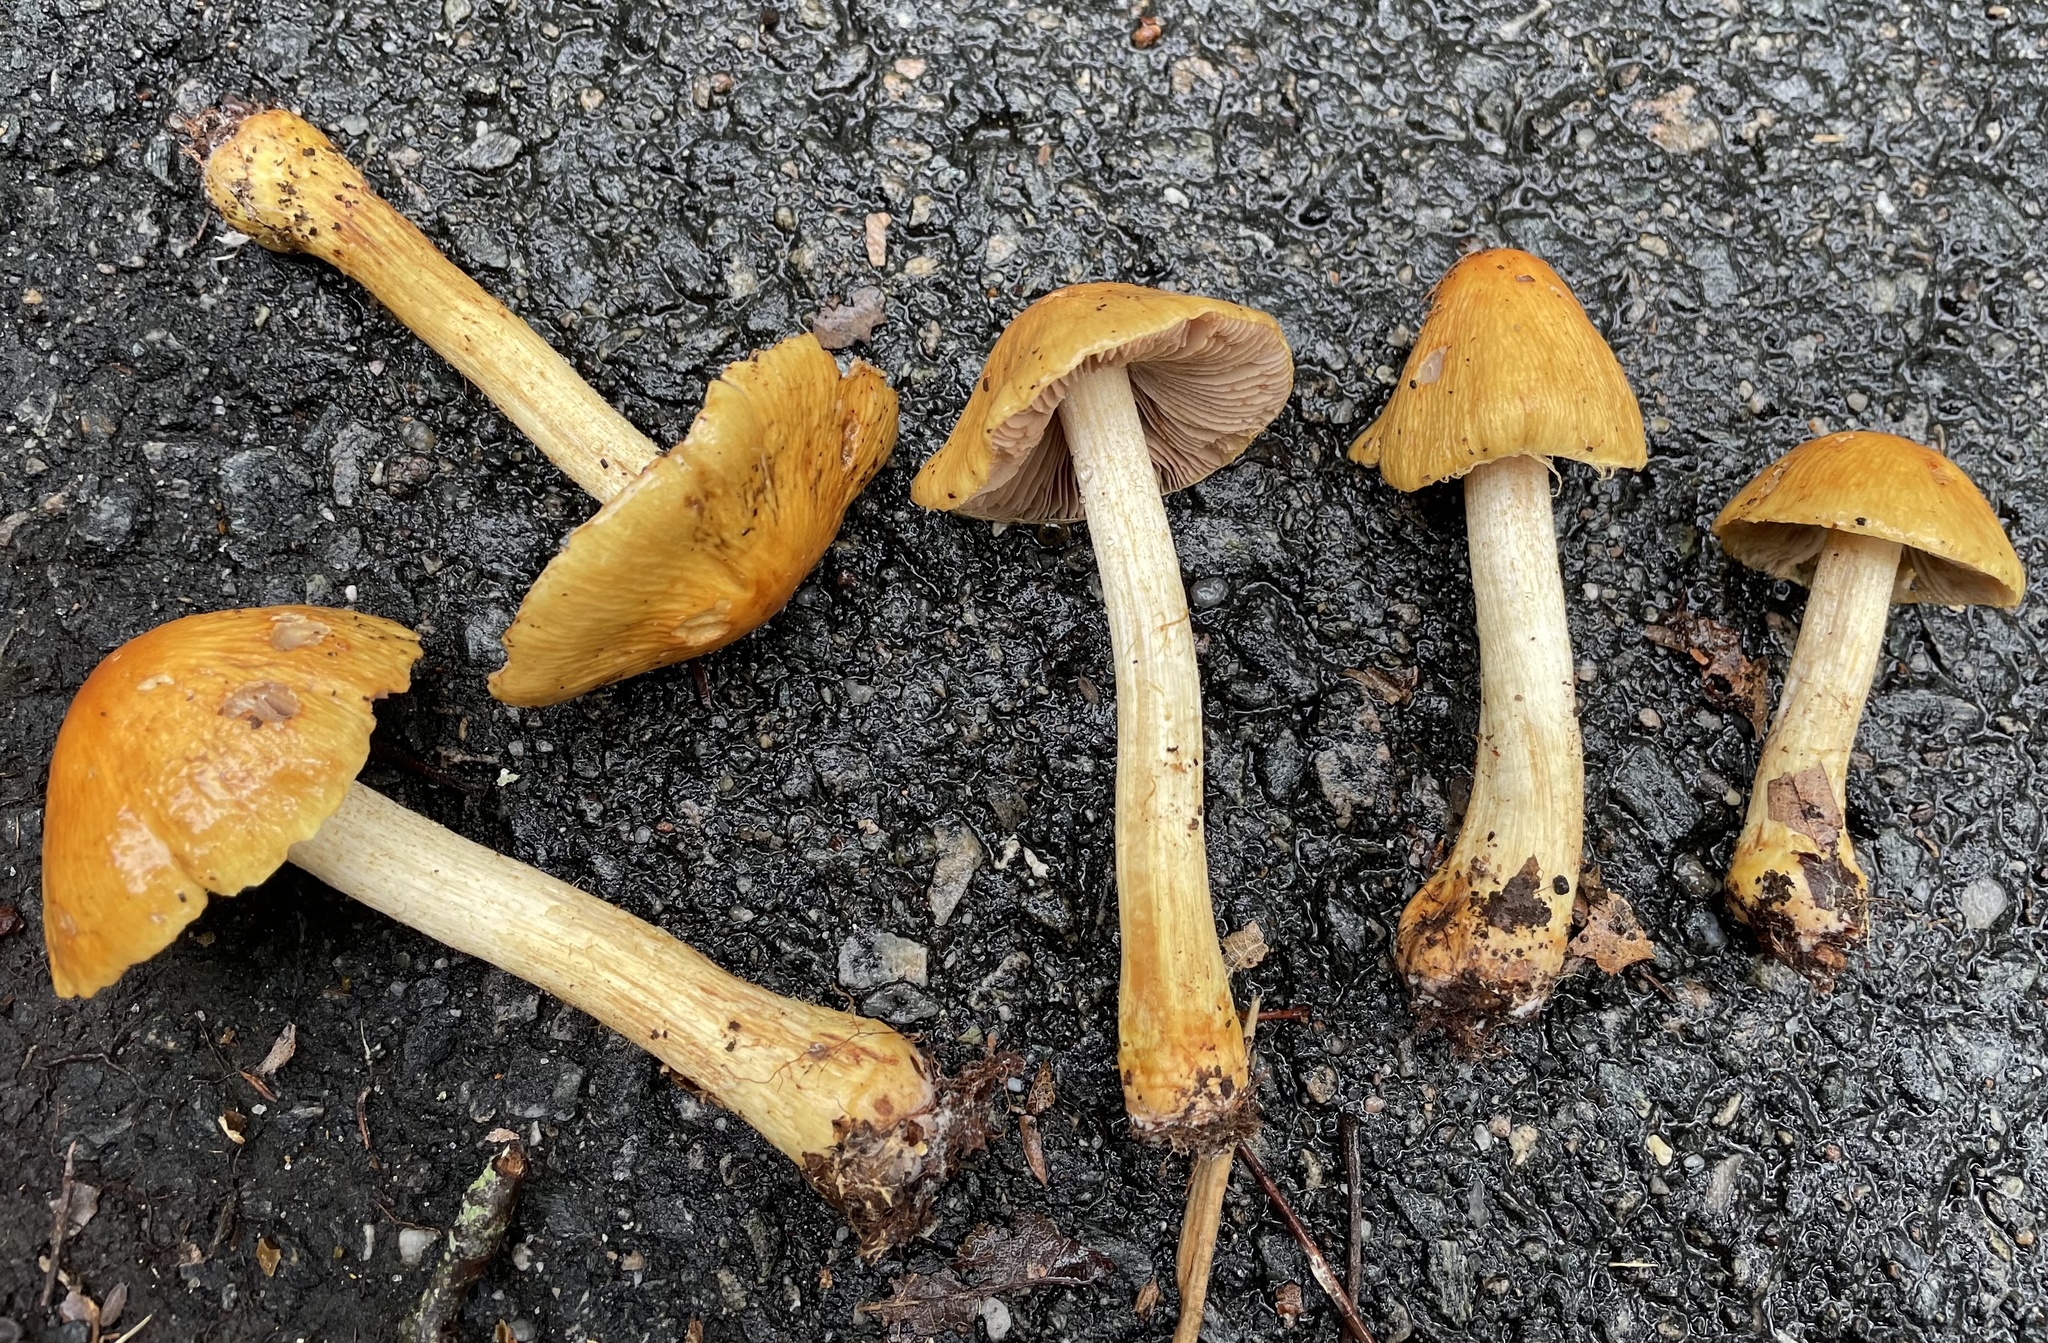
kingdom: Fungi
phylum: Basidiomycota
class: Agaricomycetes
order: Agaricales
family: Cortinariaceae
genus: Cortinarius
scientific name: Cortinarius corrugatus
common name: Wrinkled cortinarius
